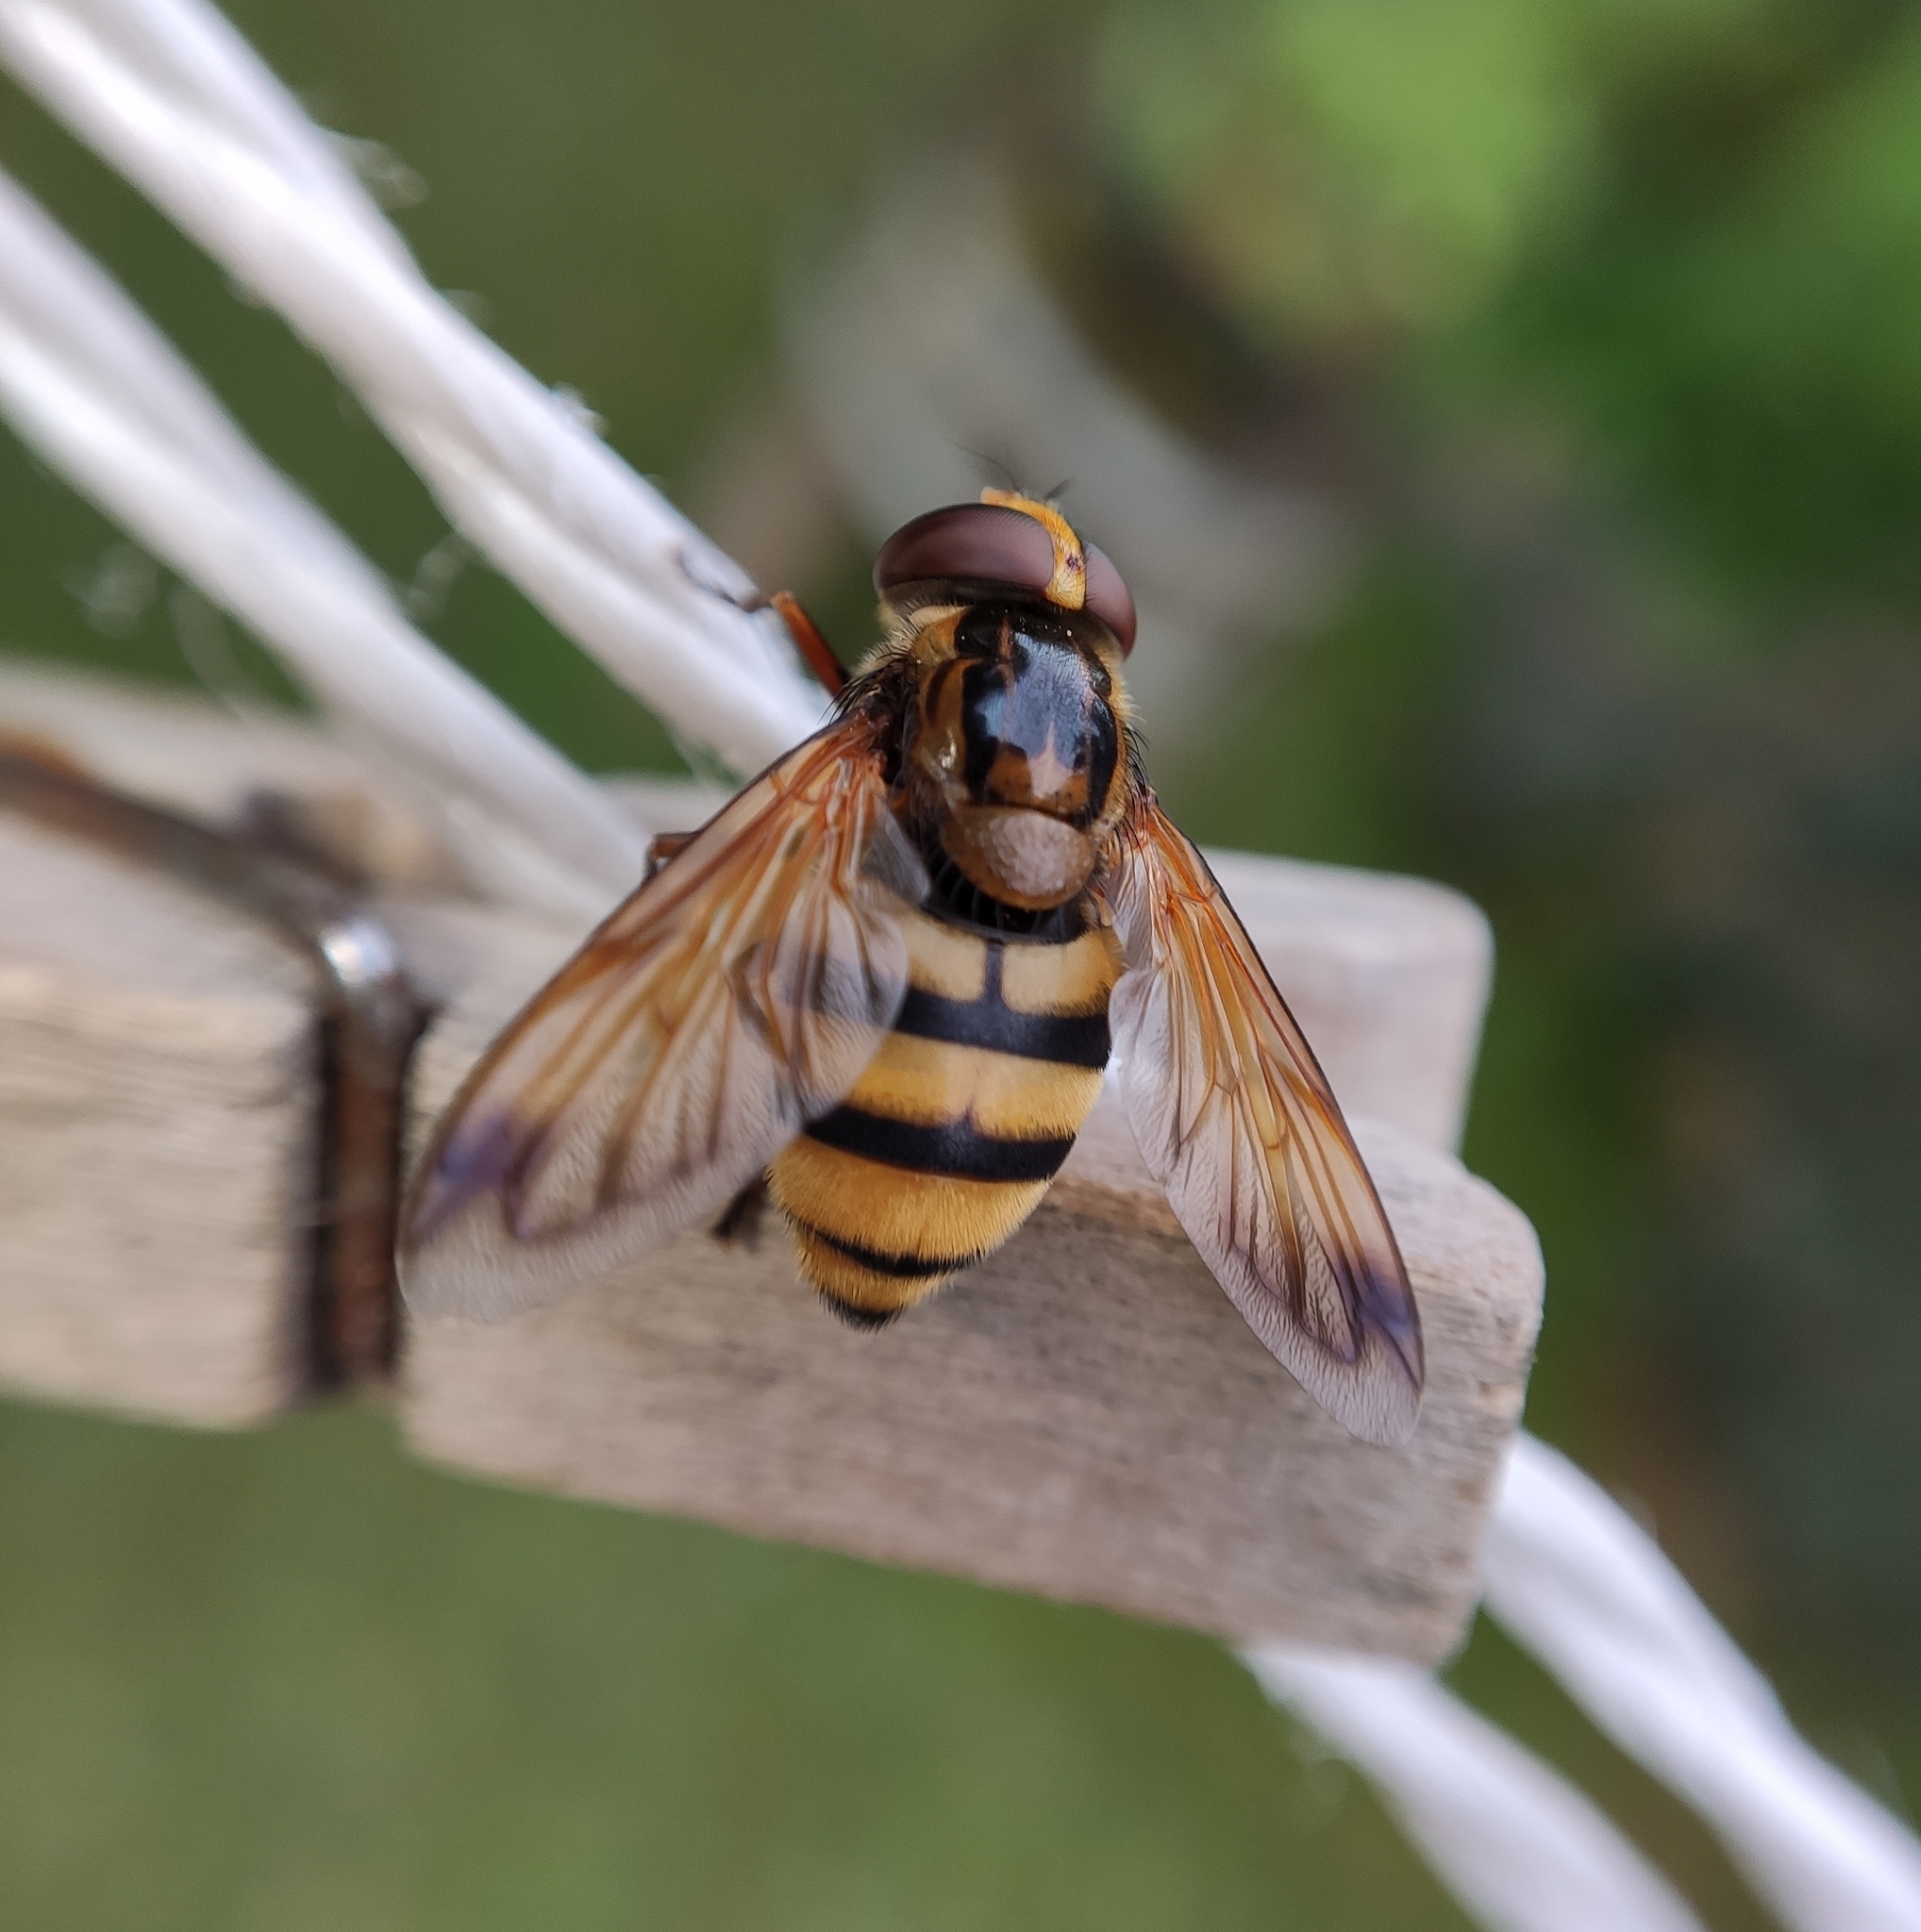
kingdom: Animalia
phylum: Arthropoda
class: Insecta
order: Diptera
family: Syrphidae
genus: Volucella
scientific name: Volucella inanis
